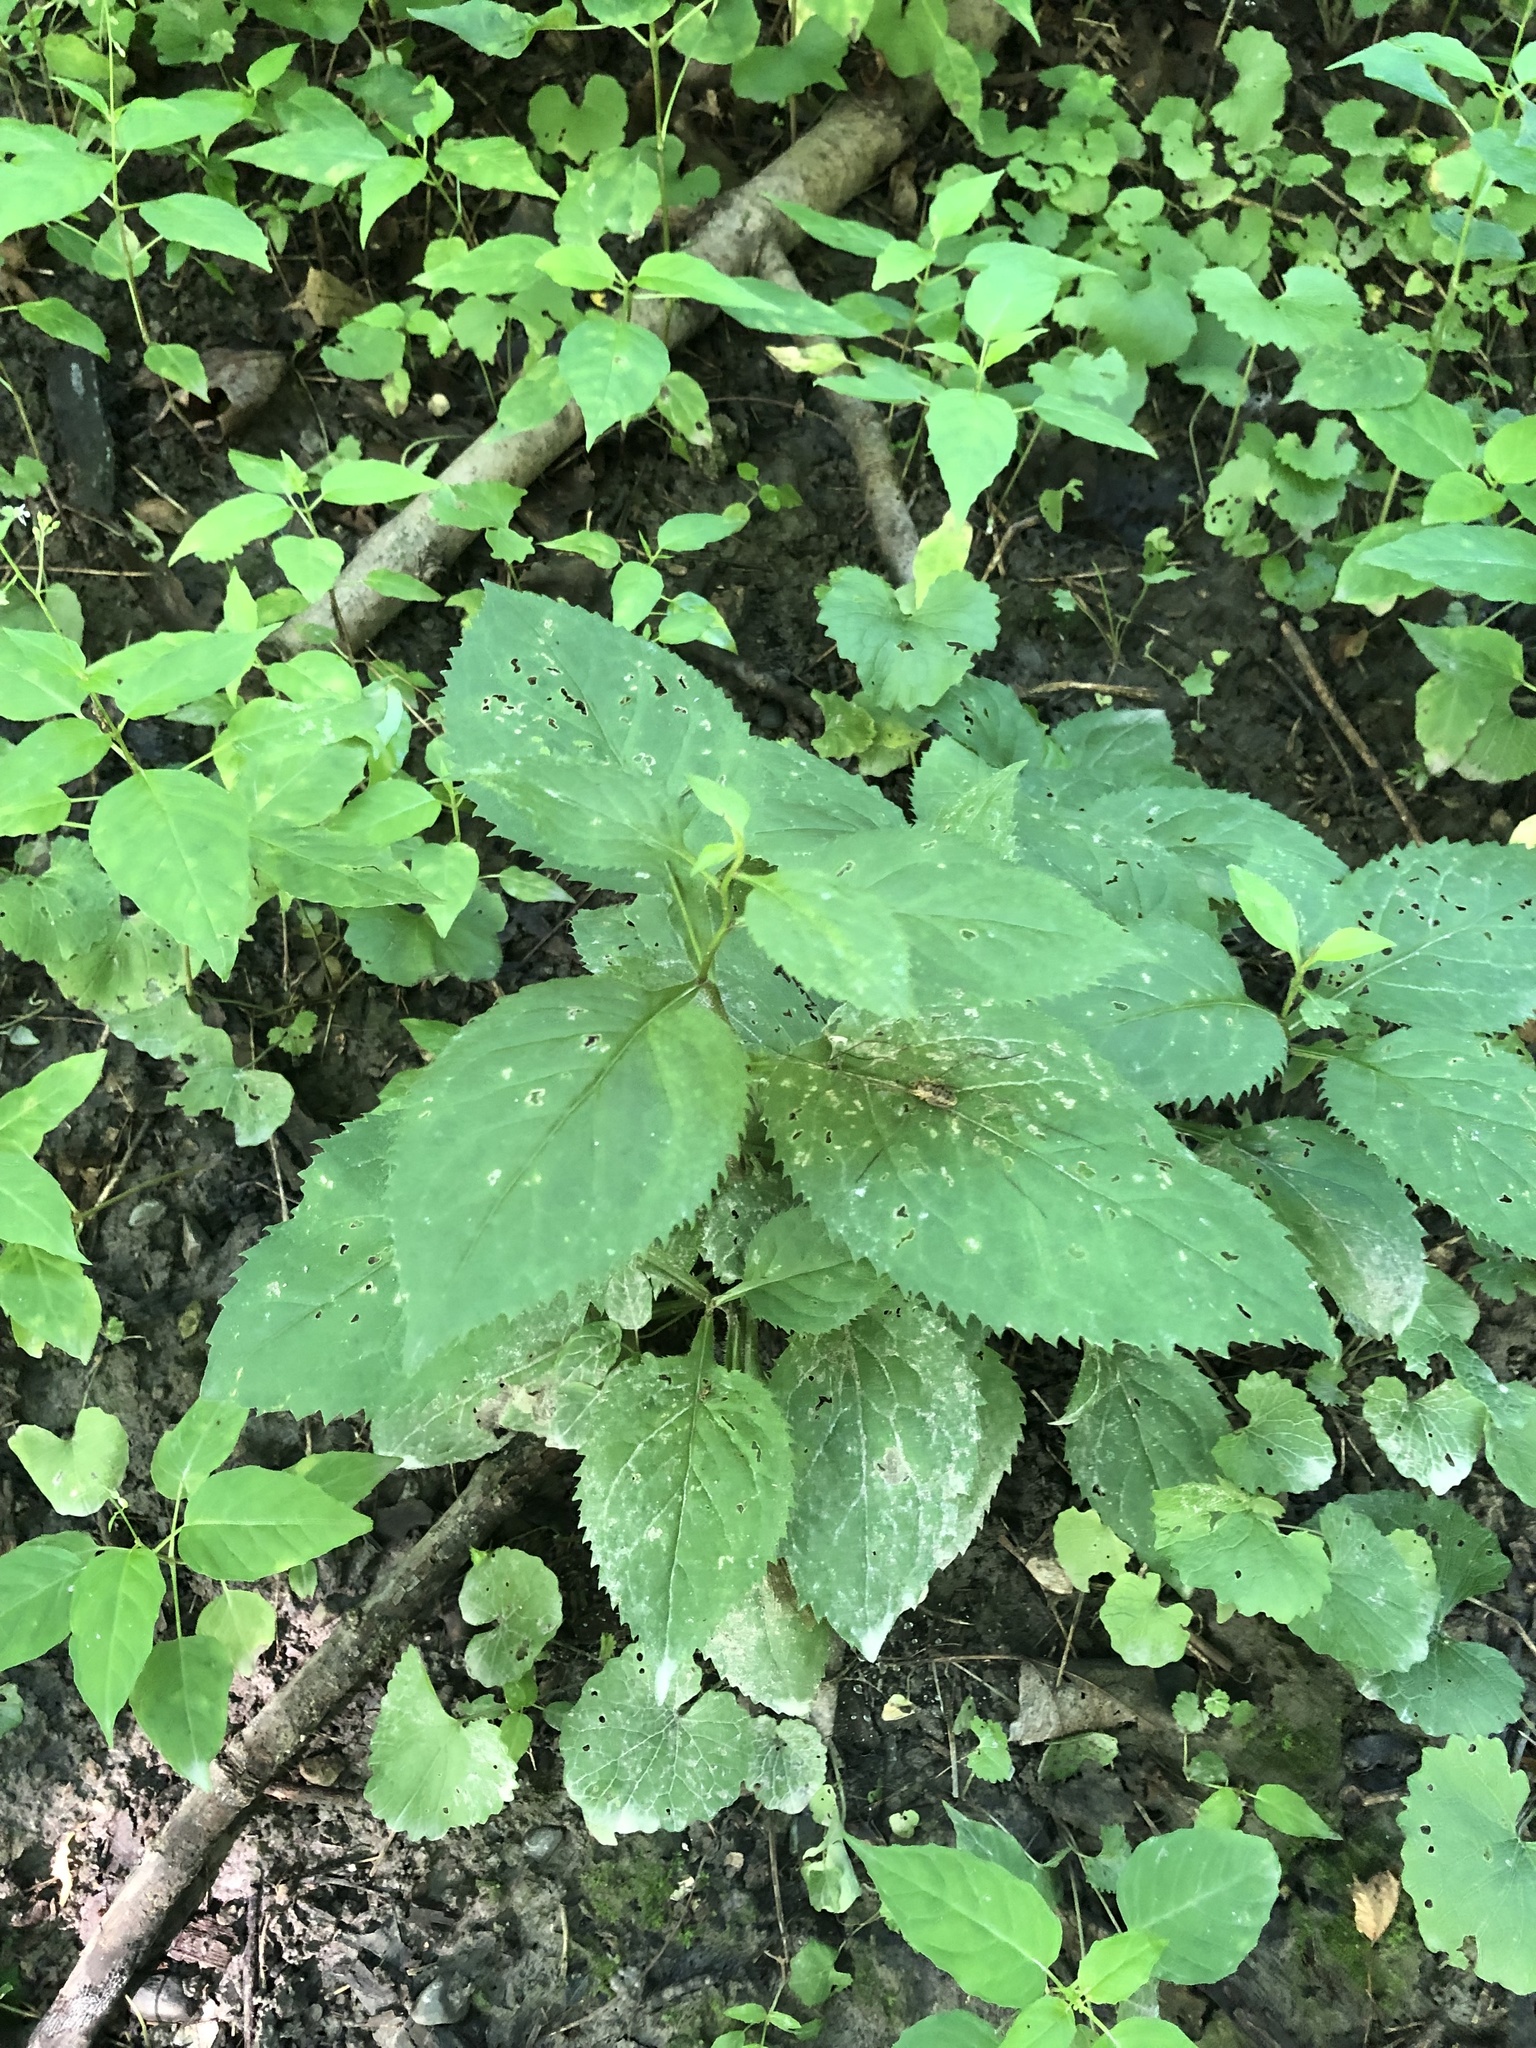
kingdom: Plantae
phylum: Tracheophyta
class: Magnoliopsida
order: Asterales
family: Asteraceae
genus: Solidago
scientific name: Solidago flexicaulis
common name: Zig-zag goldenrod
